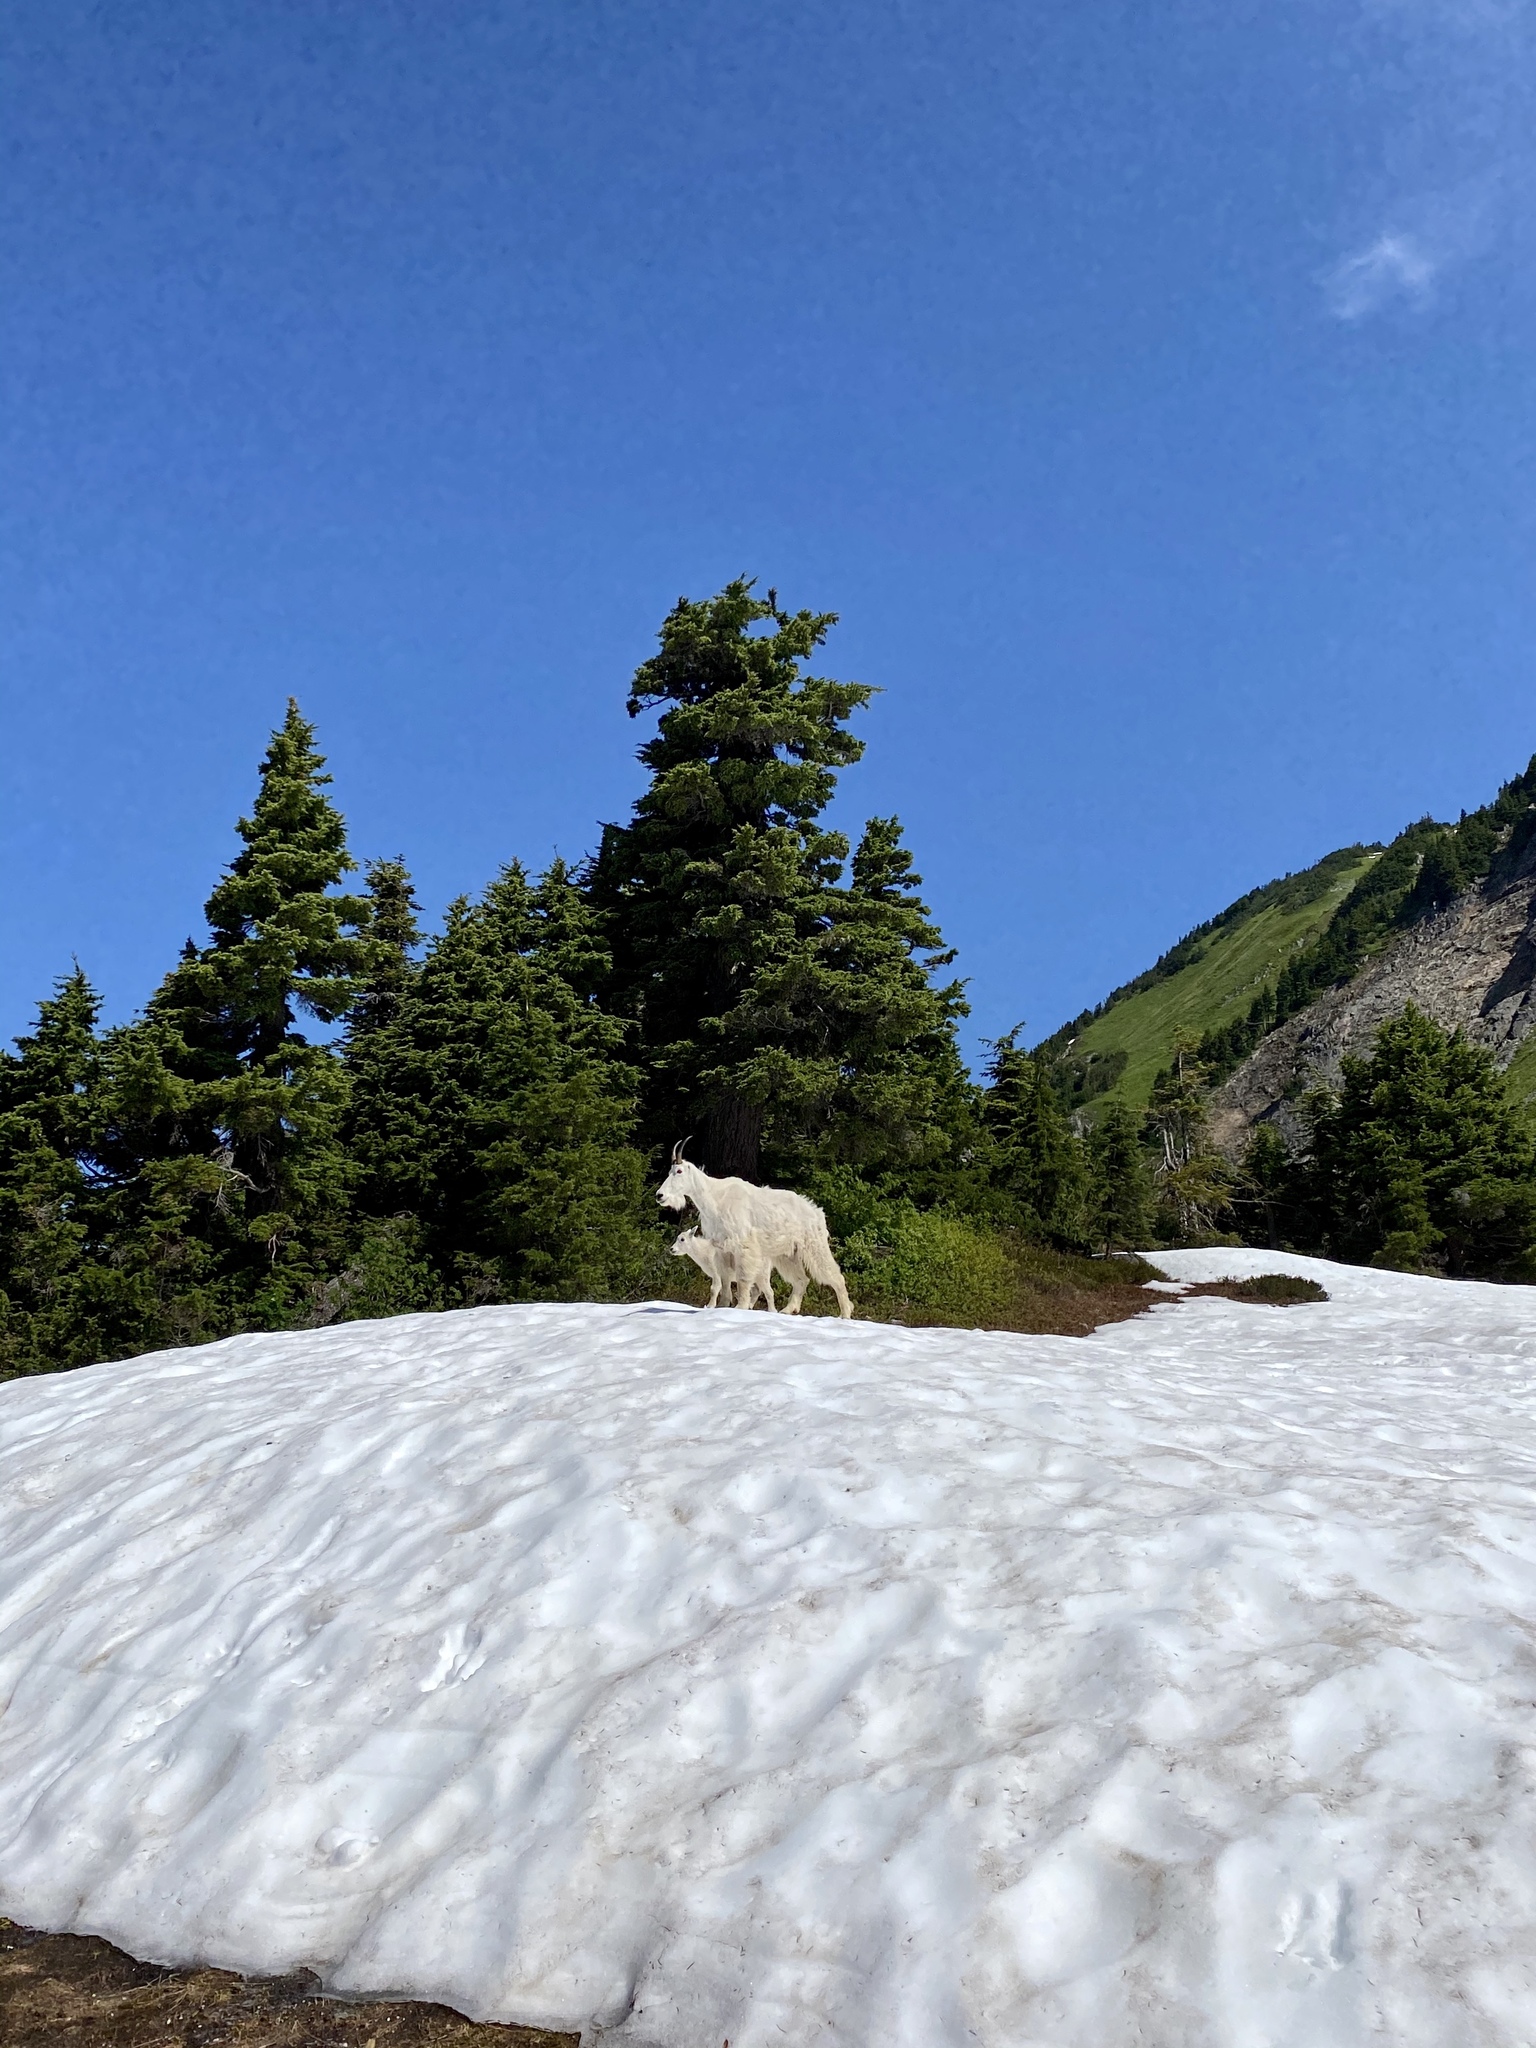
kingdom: Animalia
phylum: Chordata
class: Mammalia
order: Artiodactyla
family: Bovidae
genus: Oreamnos
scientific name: Oreamnos americanus
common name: Mountain goat
